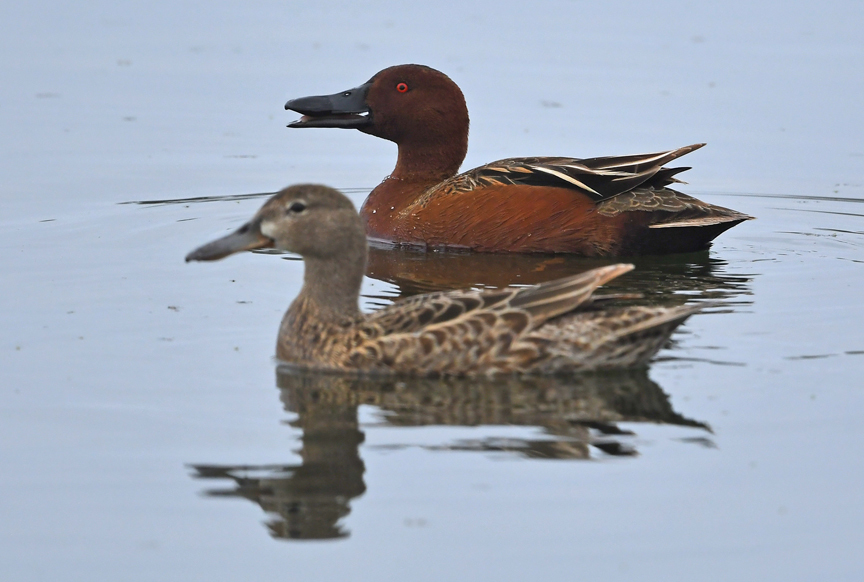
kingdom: Animalia
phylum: Chordata
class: Aves
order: Anseriformes
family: Anatidae
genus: Spatula
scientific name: Spatula cyanoptera
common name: Cinnamon teal
